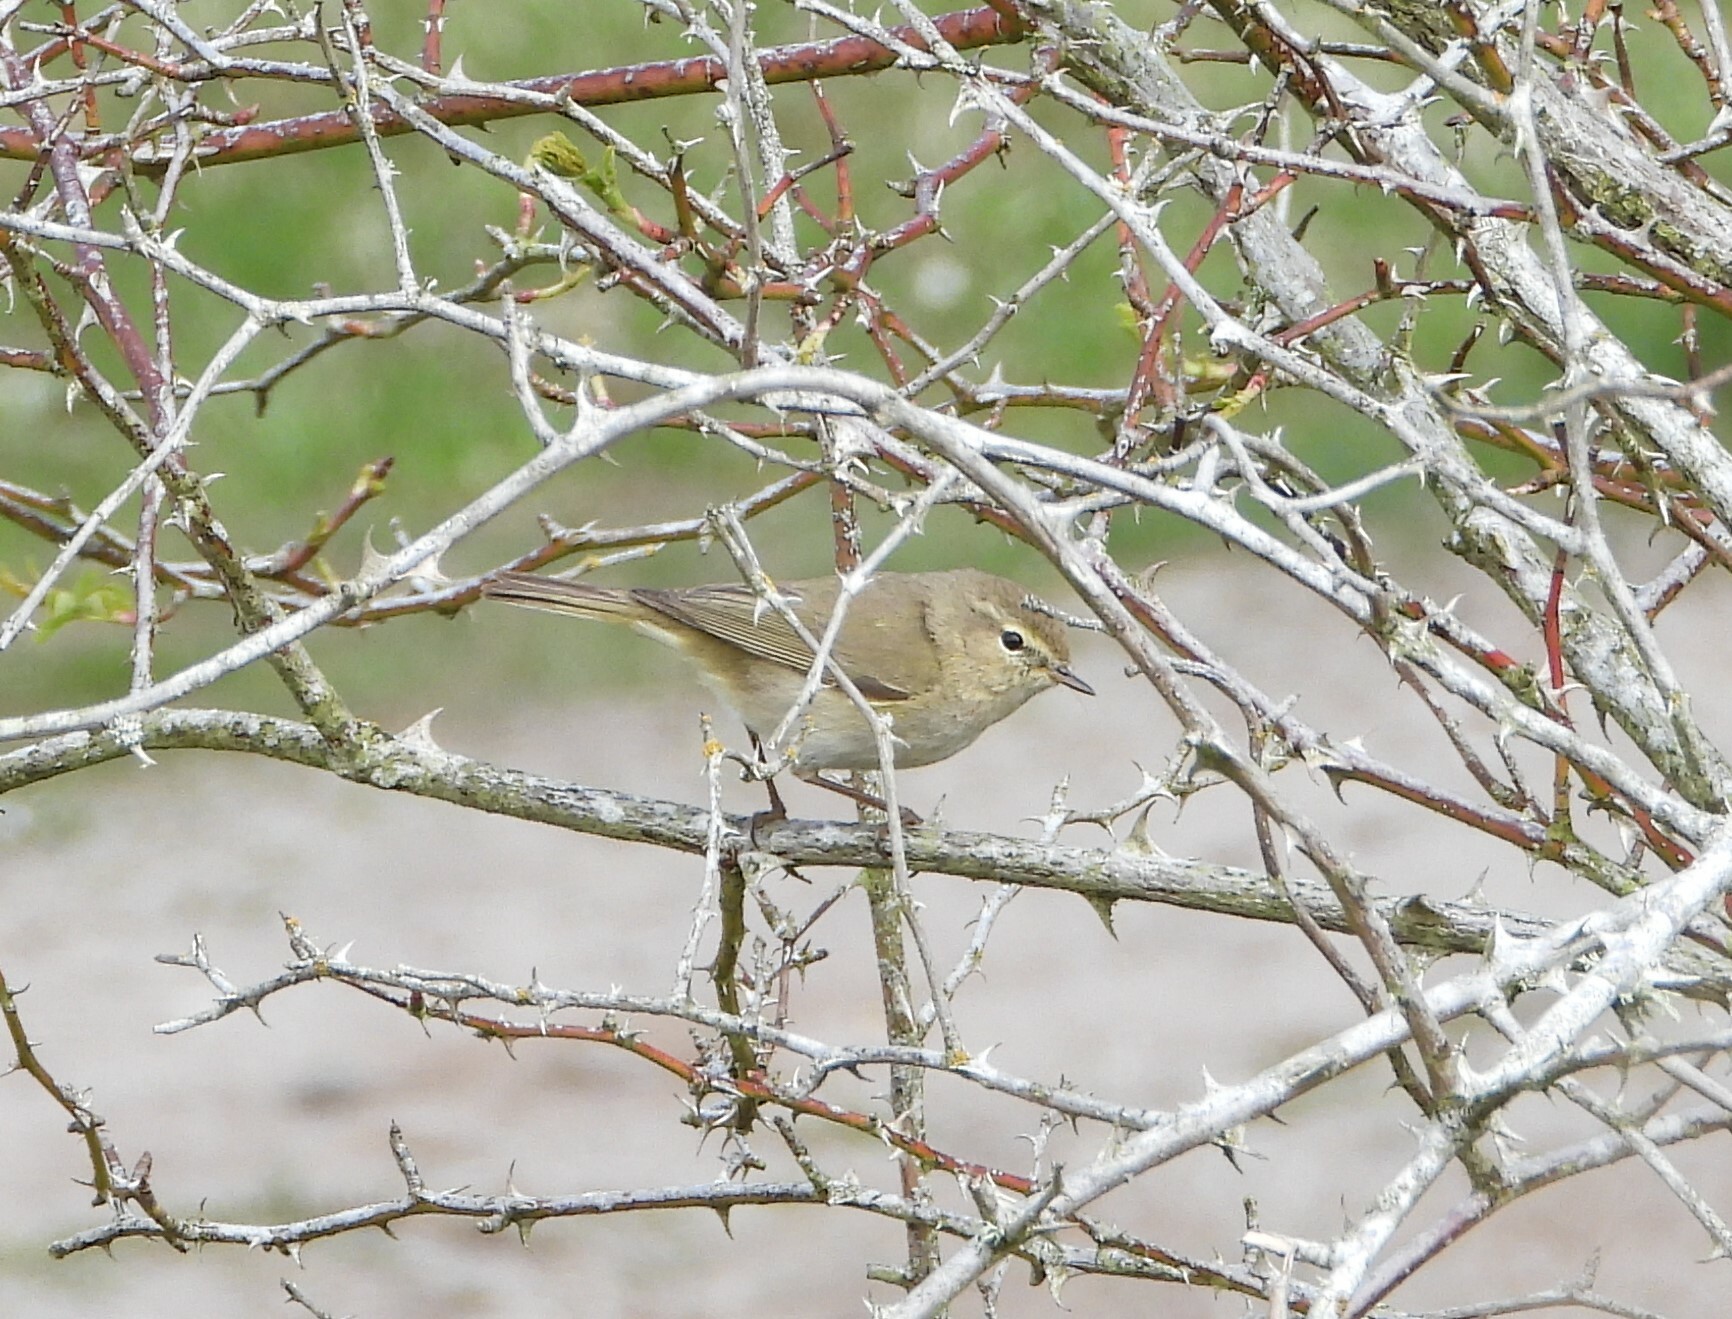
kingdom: Animalia
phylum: Chordata
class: Aves
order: Passeriformes
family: Phylloscopidae
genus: Phylloscopus
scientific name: Phylloscopus collybita
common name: Common chiffchaff
